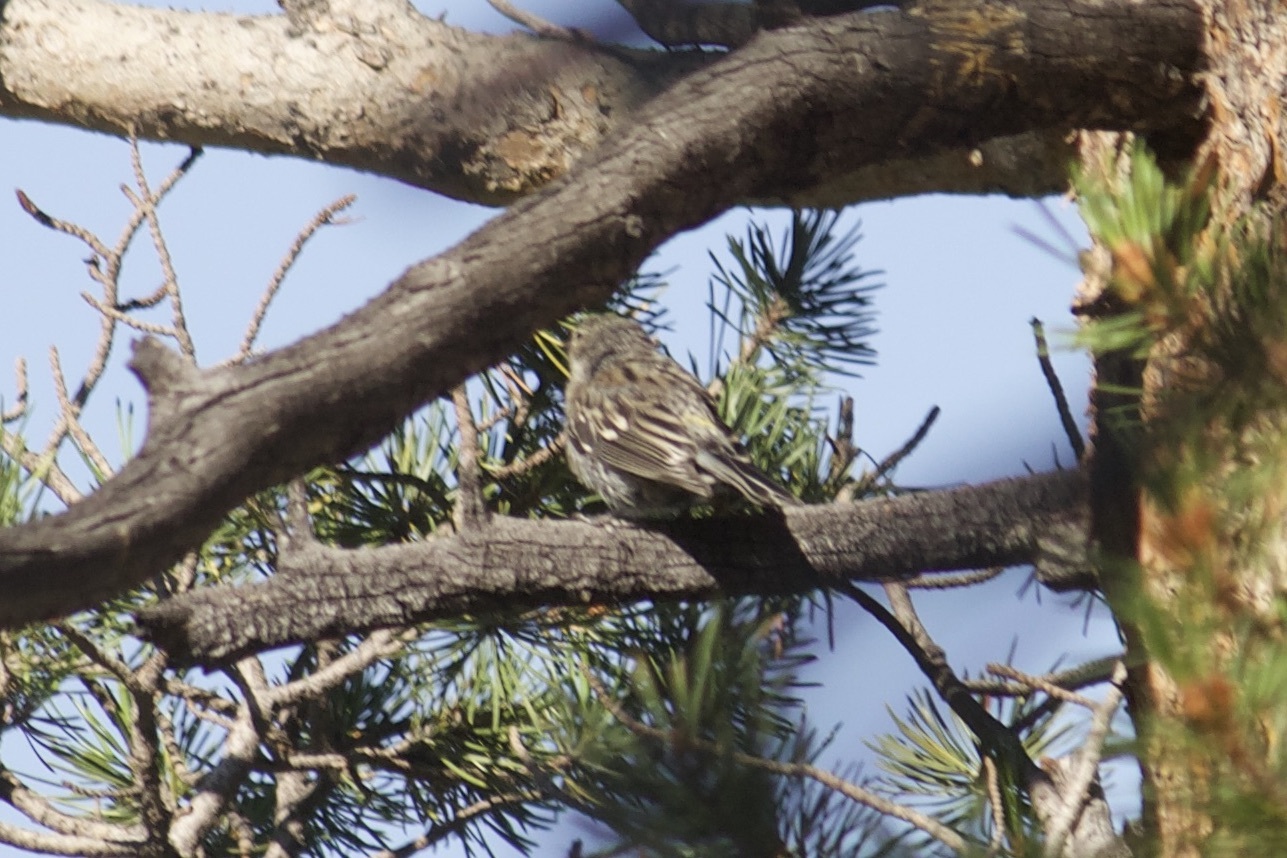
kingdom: Animalia
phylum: Chordata
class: Aves
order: Passeriformes
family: Parulidae
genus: Setophaga
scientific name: Setophaga coronata
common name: Myrtle warbler
